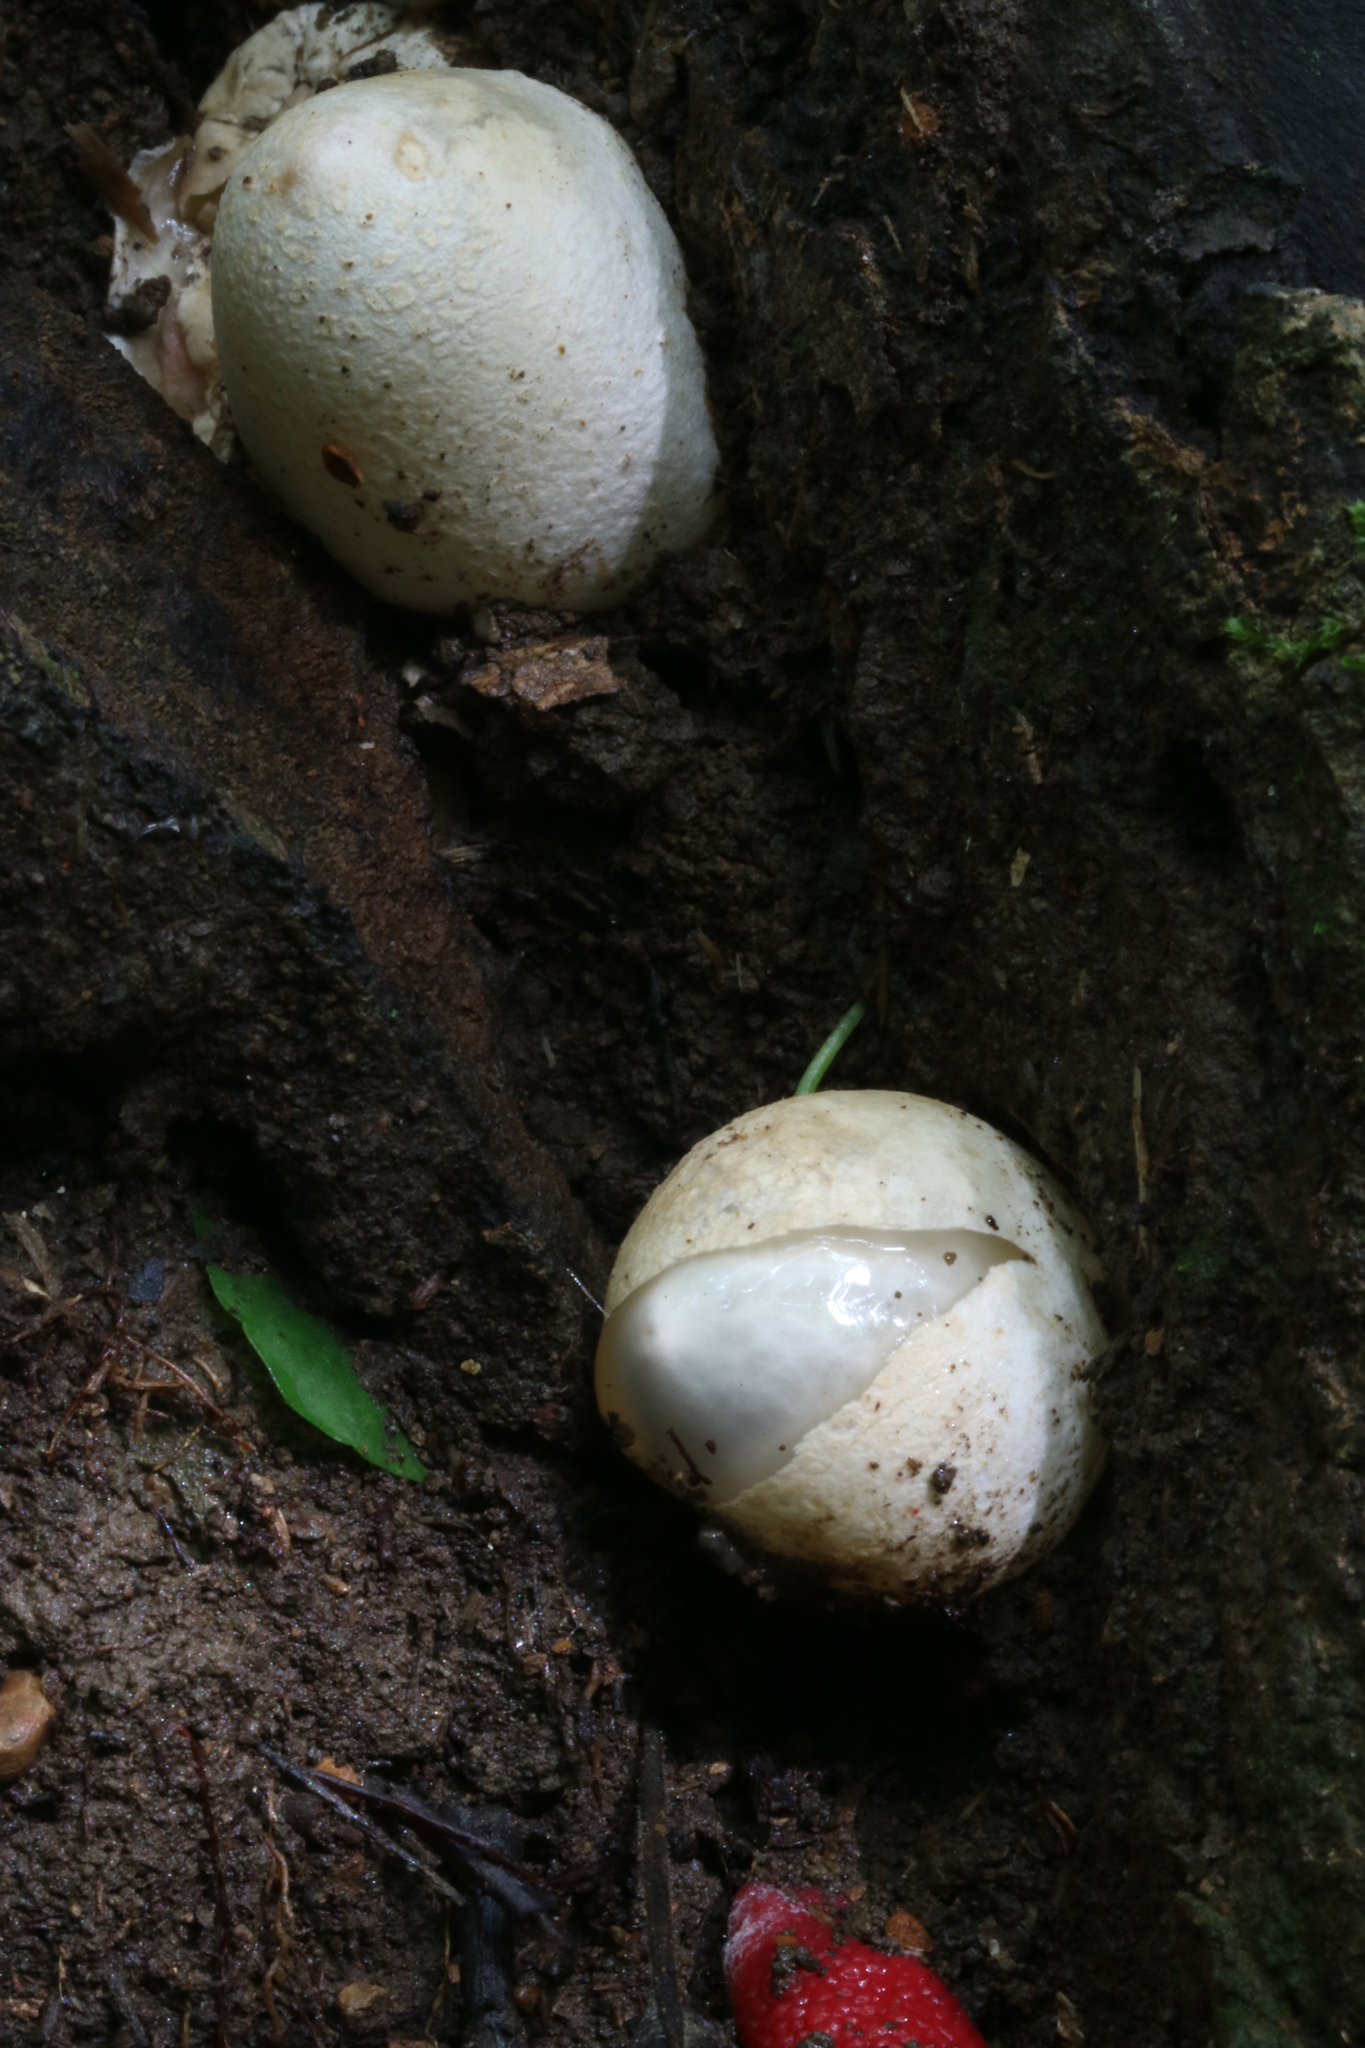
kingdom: Fungi
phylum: Basidiomycota
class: Agaricomycetes
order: Phallales
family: Phallaceae
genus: Mutinus
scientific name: Mutinus ravenelii
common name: Red stinkhorn
